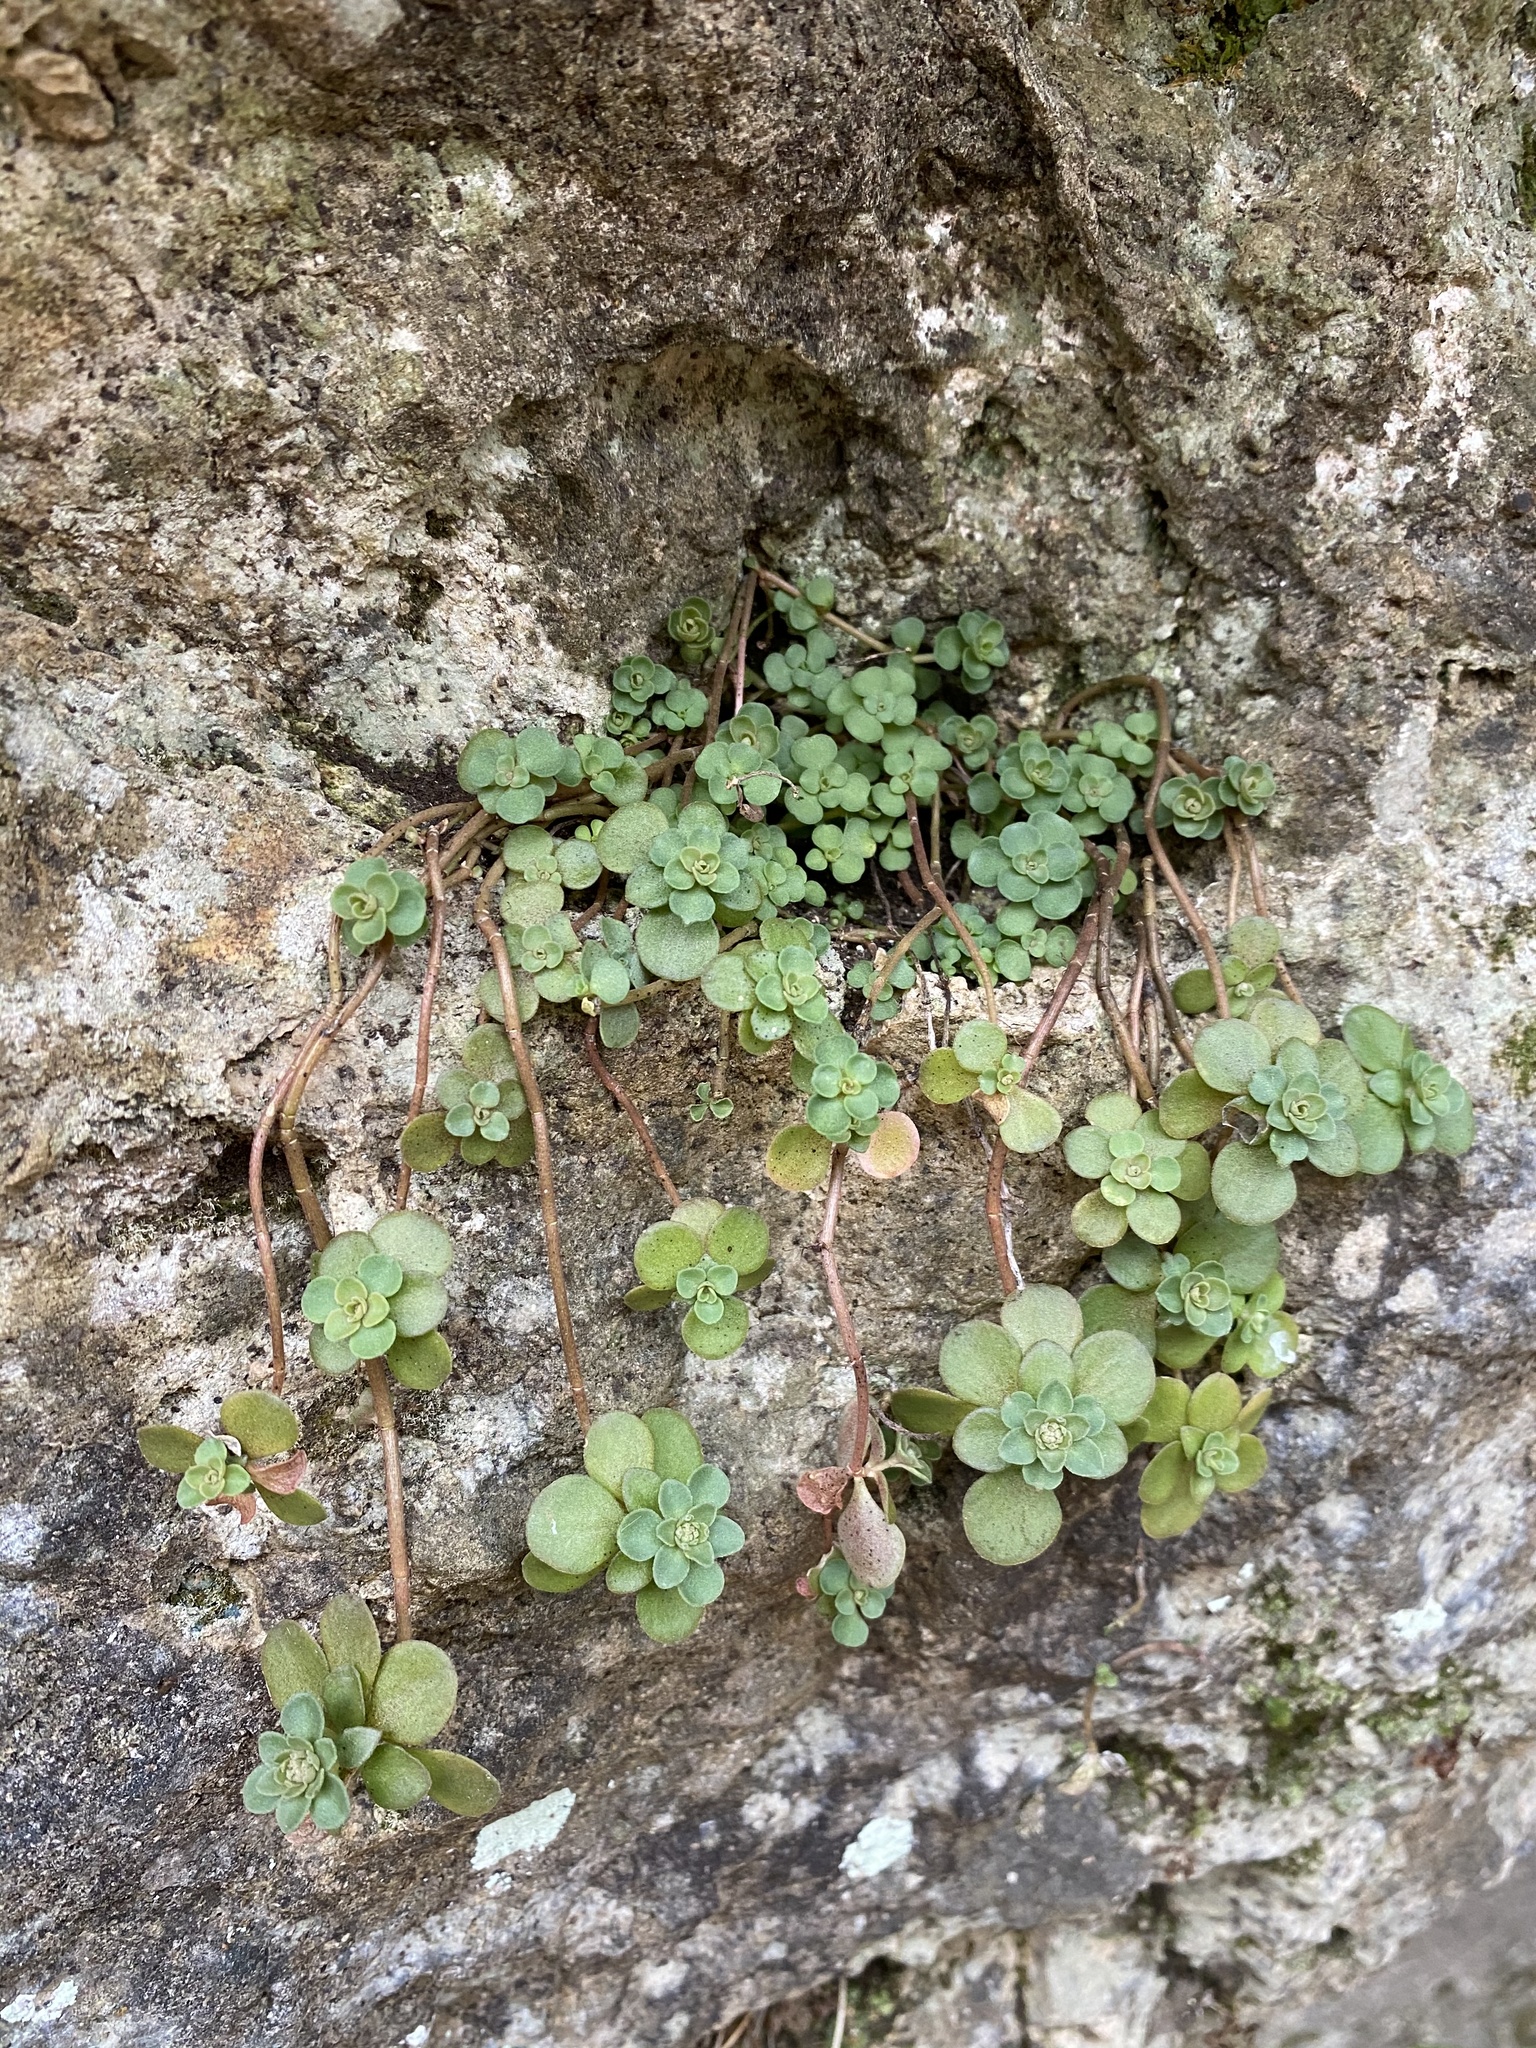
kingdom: Plantae
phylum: Tracheophyta
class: Magnoliopsida
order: Saxifragales
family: Crassulaceae
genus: Sedum
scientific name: Sedum ternatum
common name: Wild stonecrop
